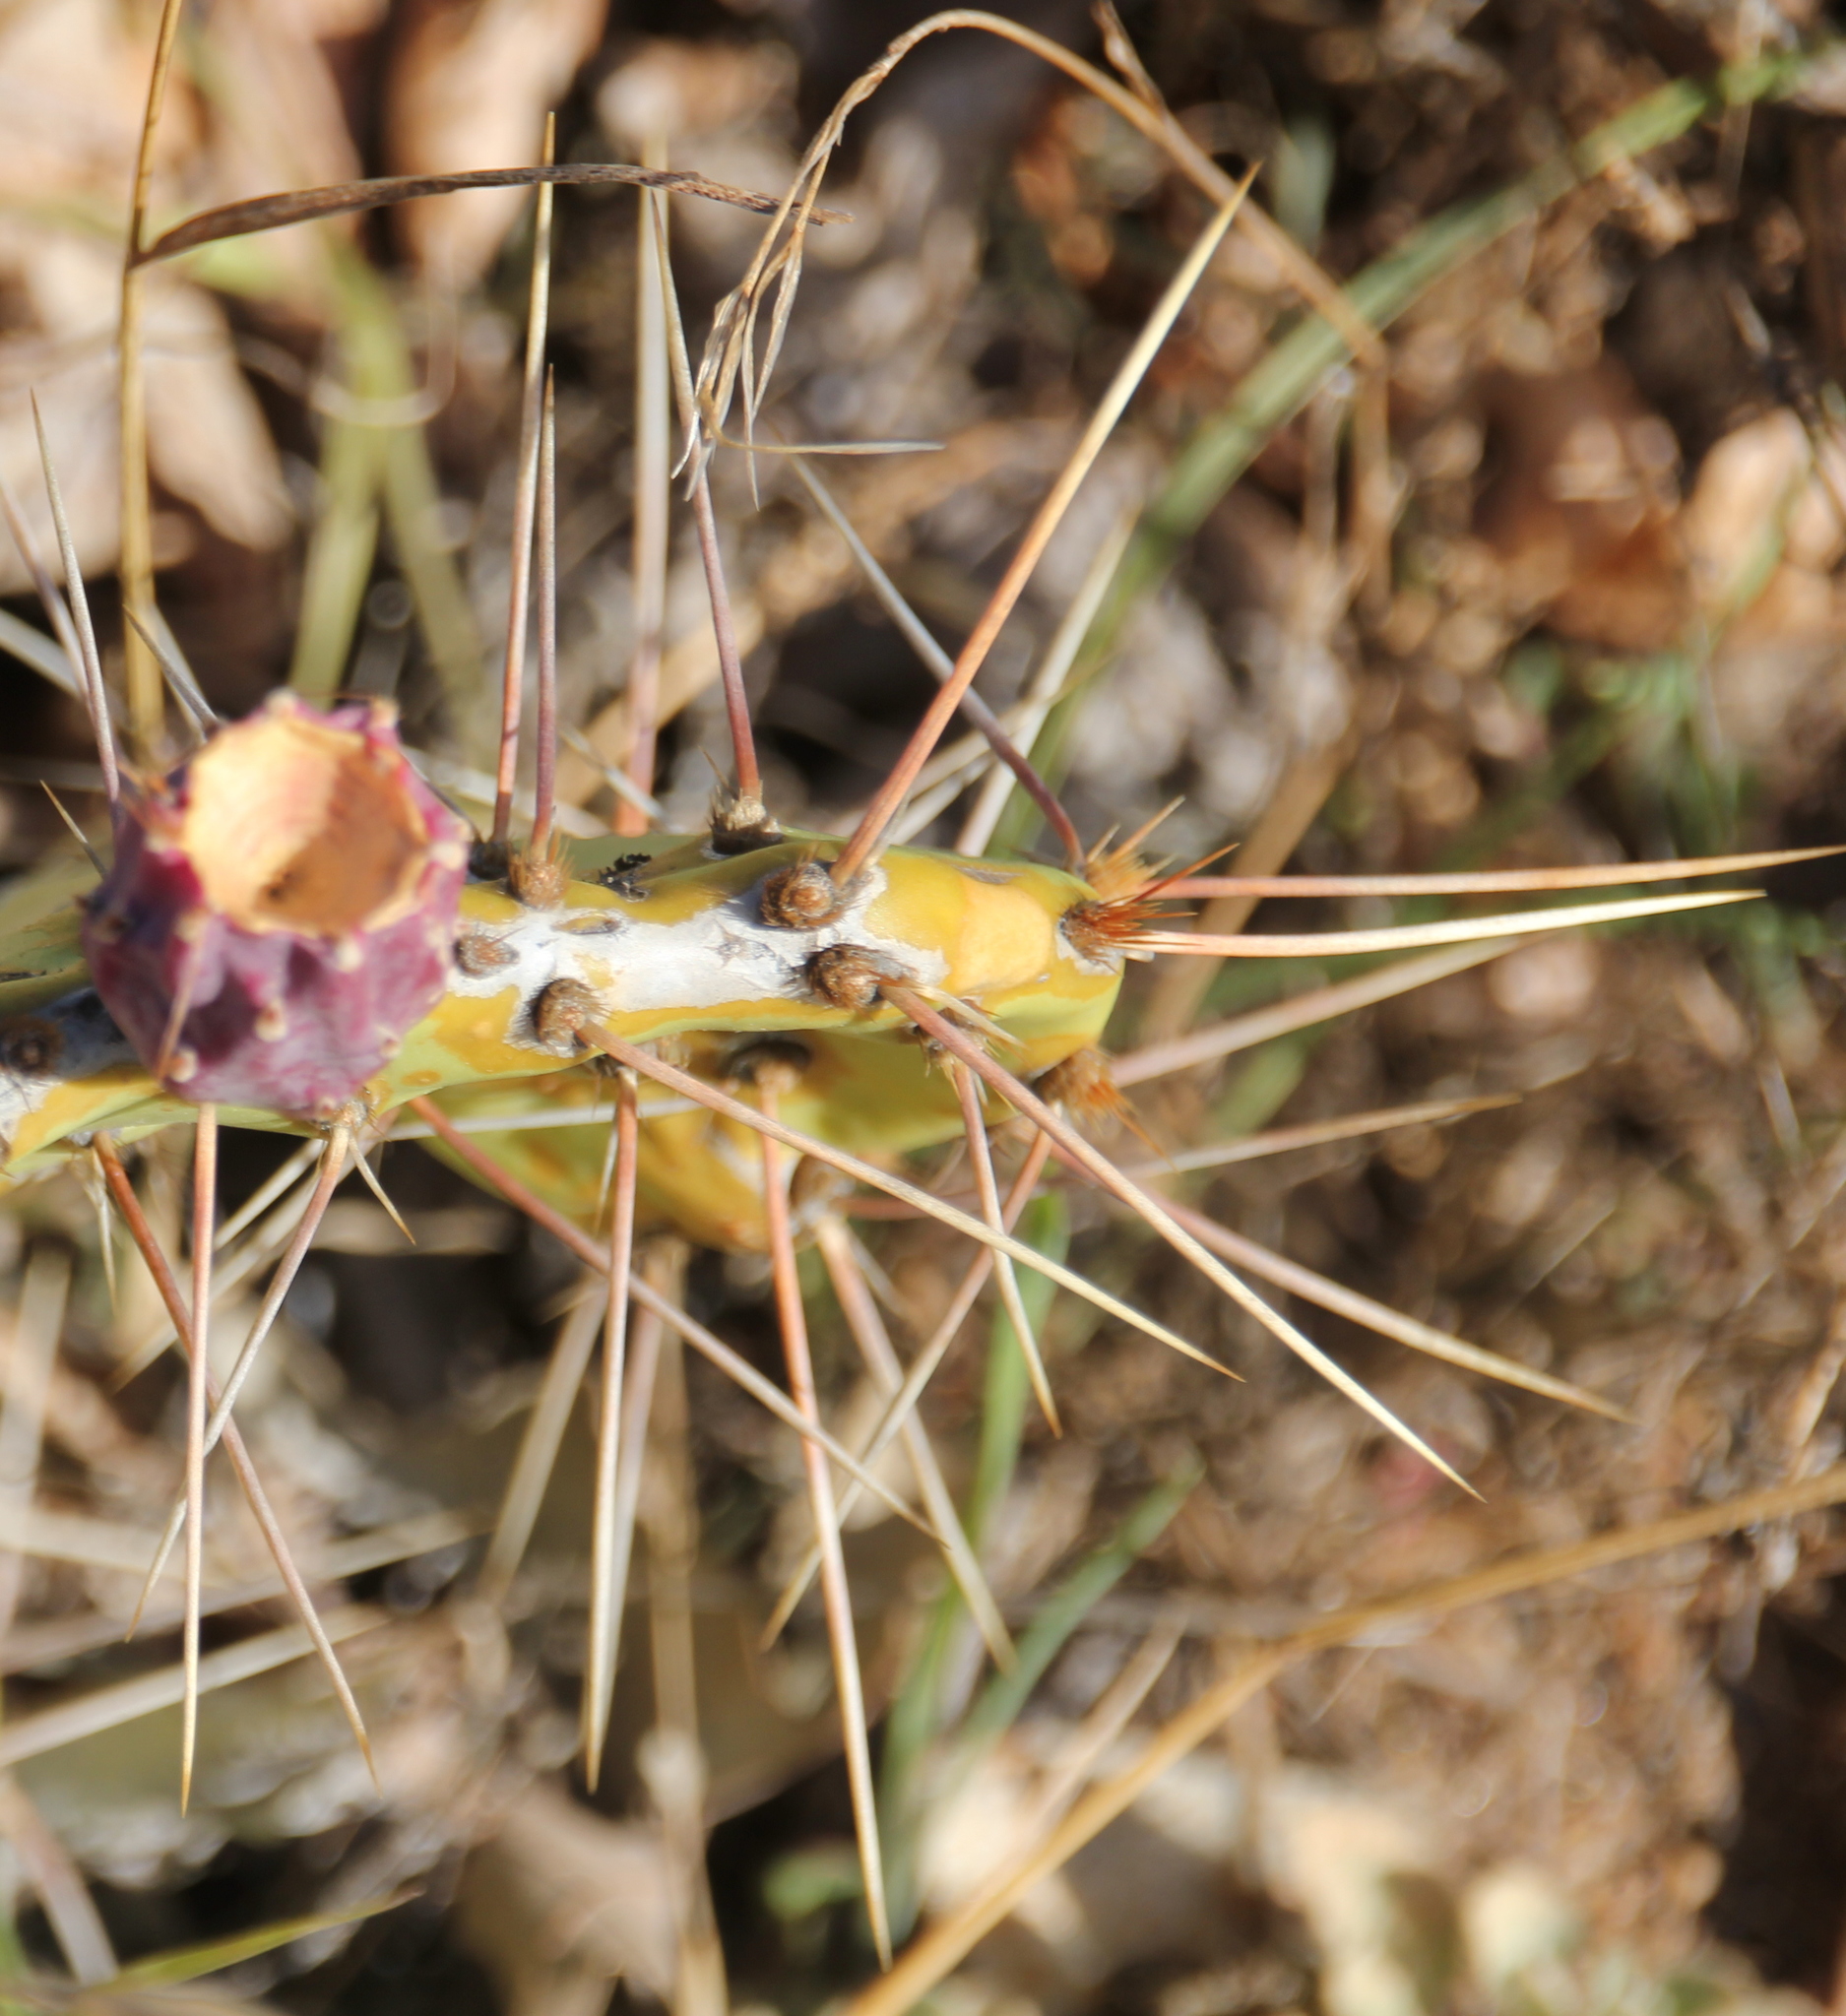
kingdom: Plantae
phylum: Tracheophyta
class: Magnoliopsida
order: Caryophyllales
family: Cactaceae
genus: Opuntia
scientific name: Opuntia phaeacantha
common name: New mexico prickly-pear
